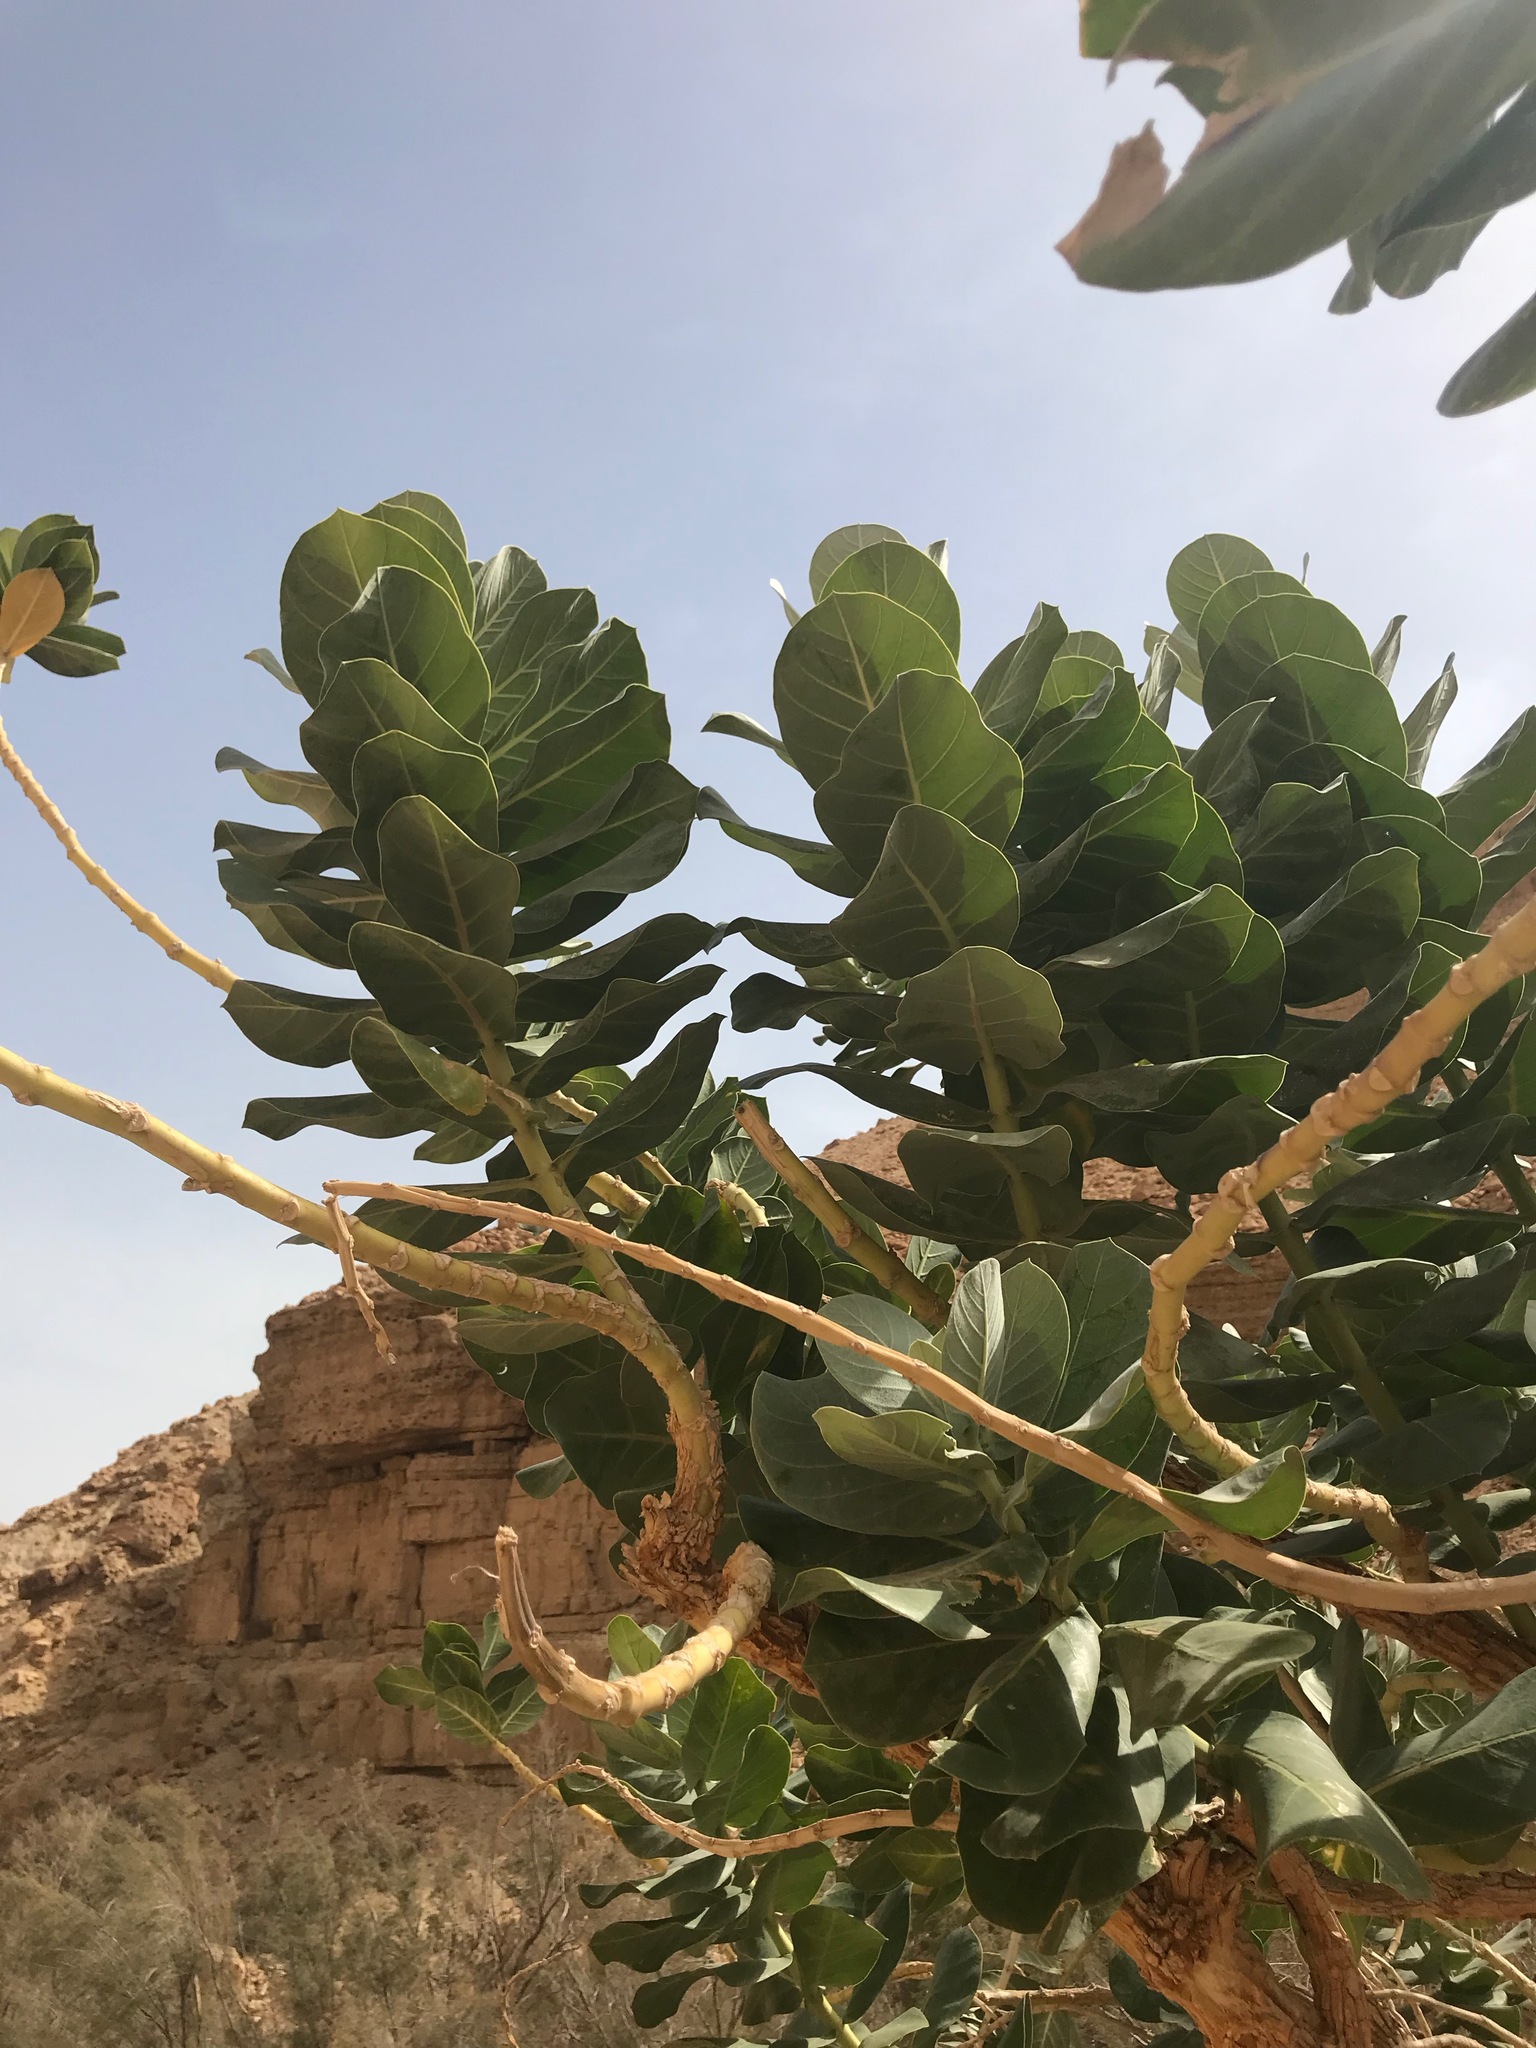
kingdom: Plantae
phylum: Tracheophyta
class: Magnoliopsida
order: Gentianales
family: Apocynaceae
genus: Calotropis
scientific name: Calotropis procera
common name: Roostertree
